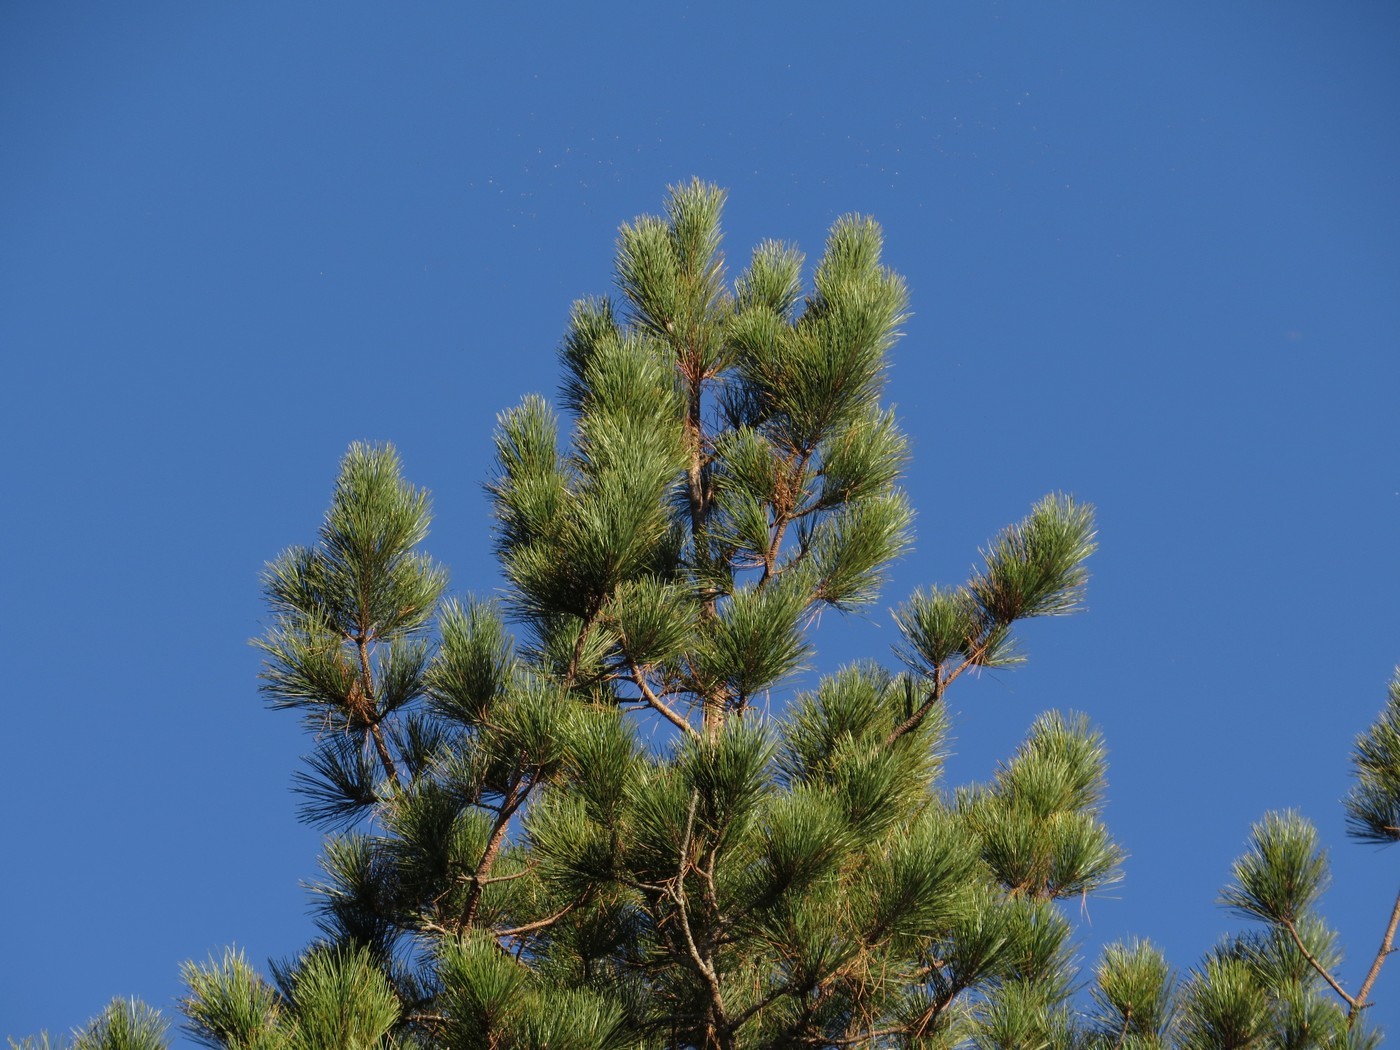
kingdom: Plantae
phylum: Tracheophyta
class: Pinopsida
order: Pinales
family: Pinaceae
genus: Pinus
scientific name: Pinus resinosa
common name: Norway pine
